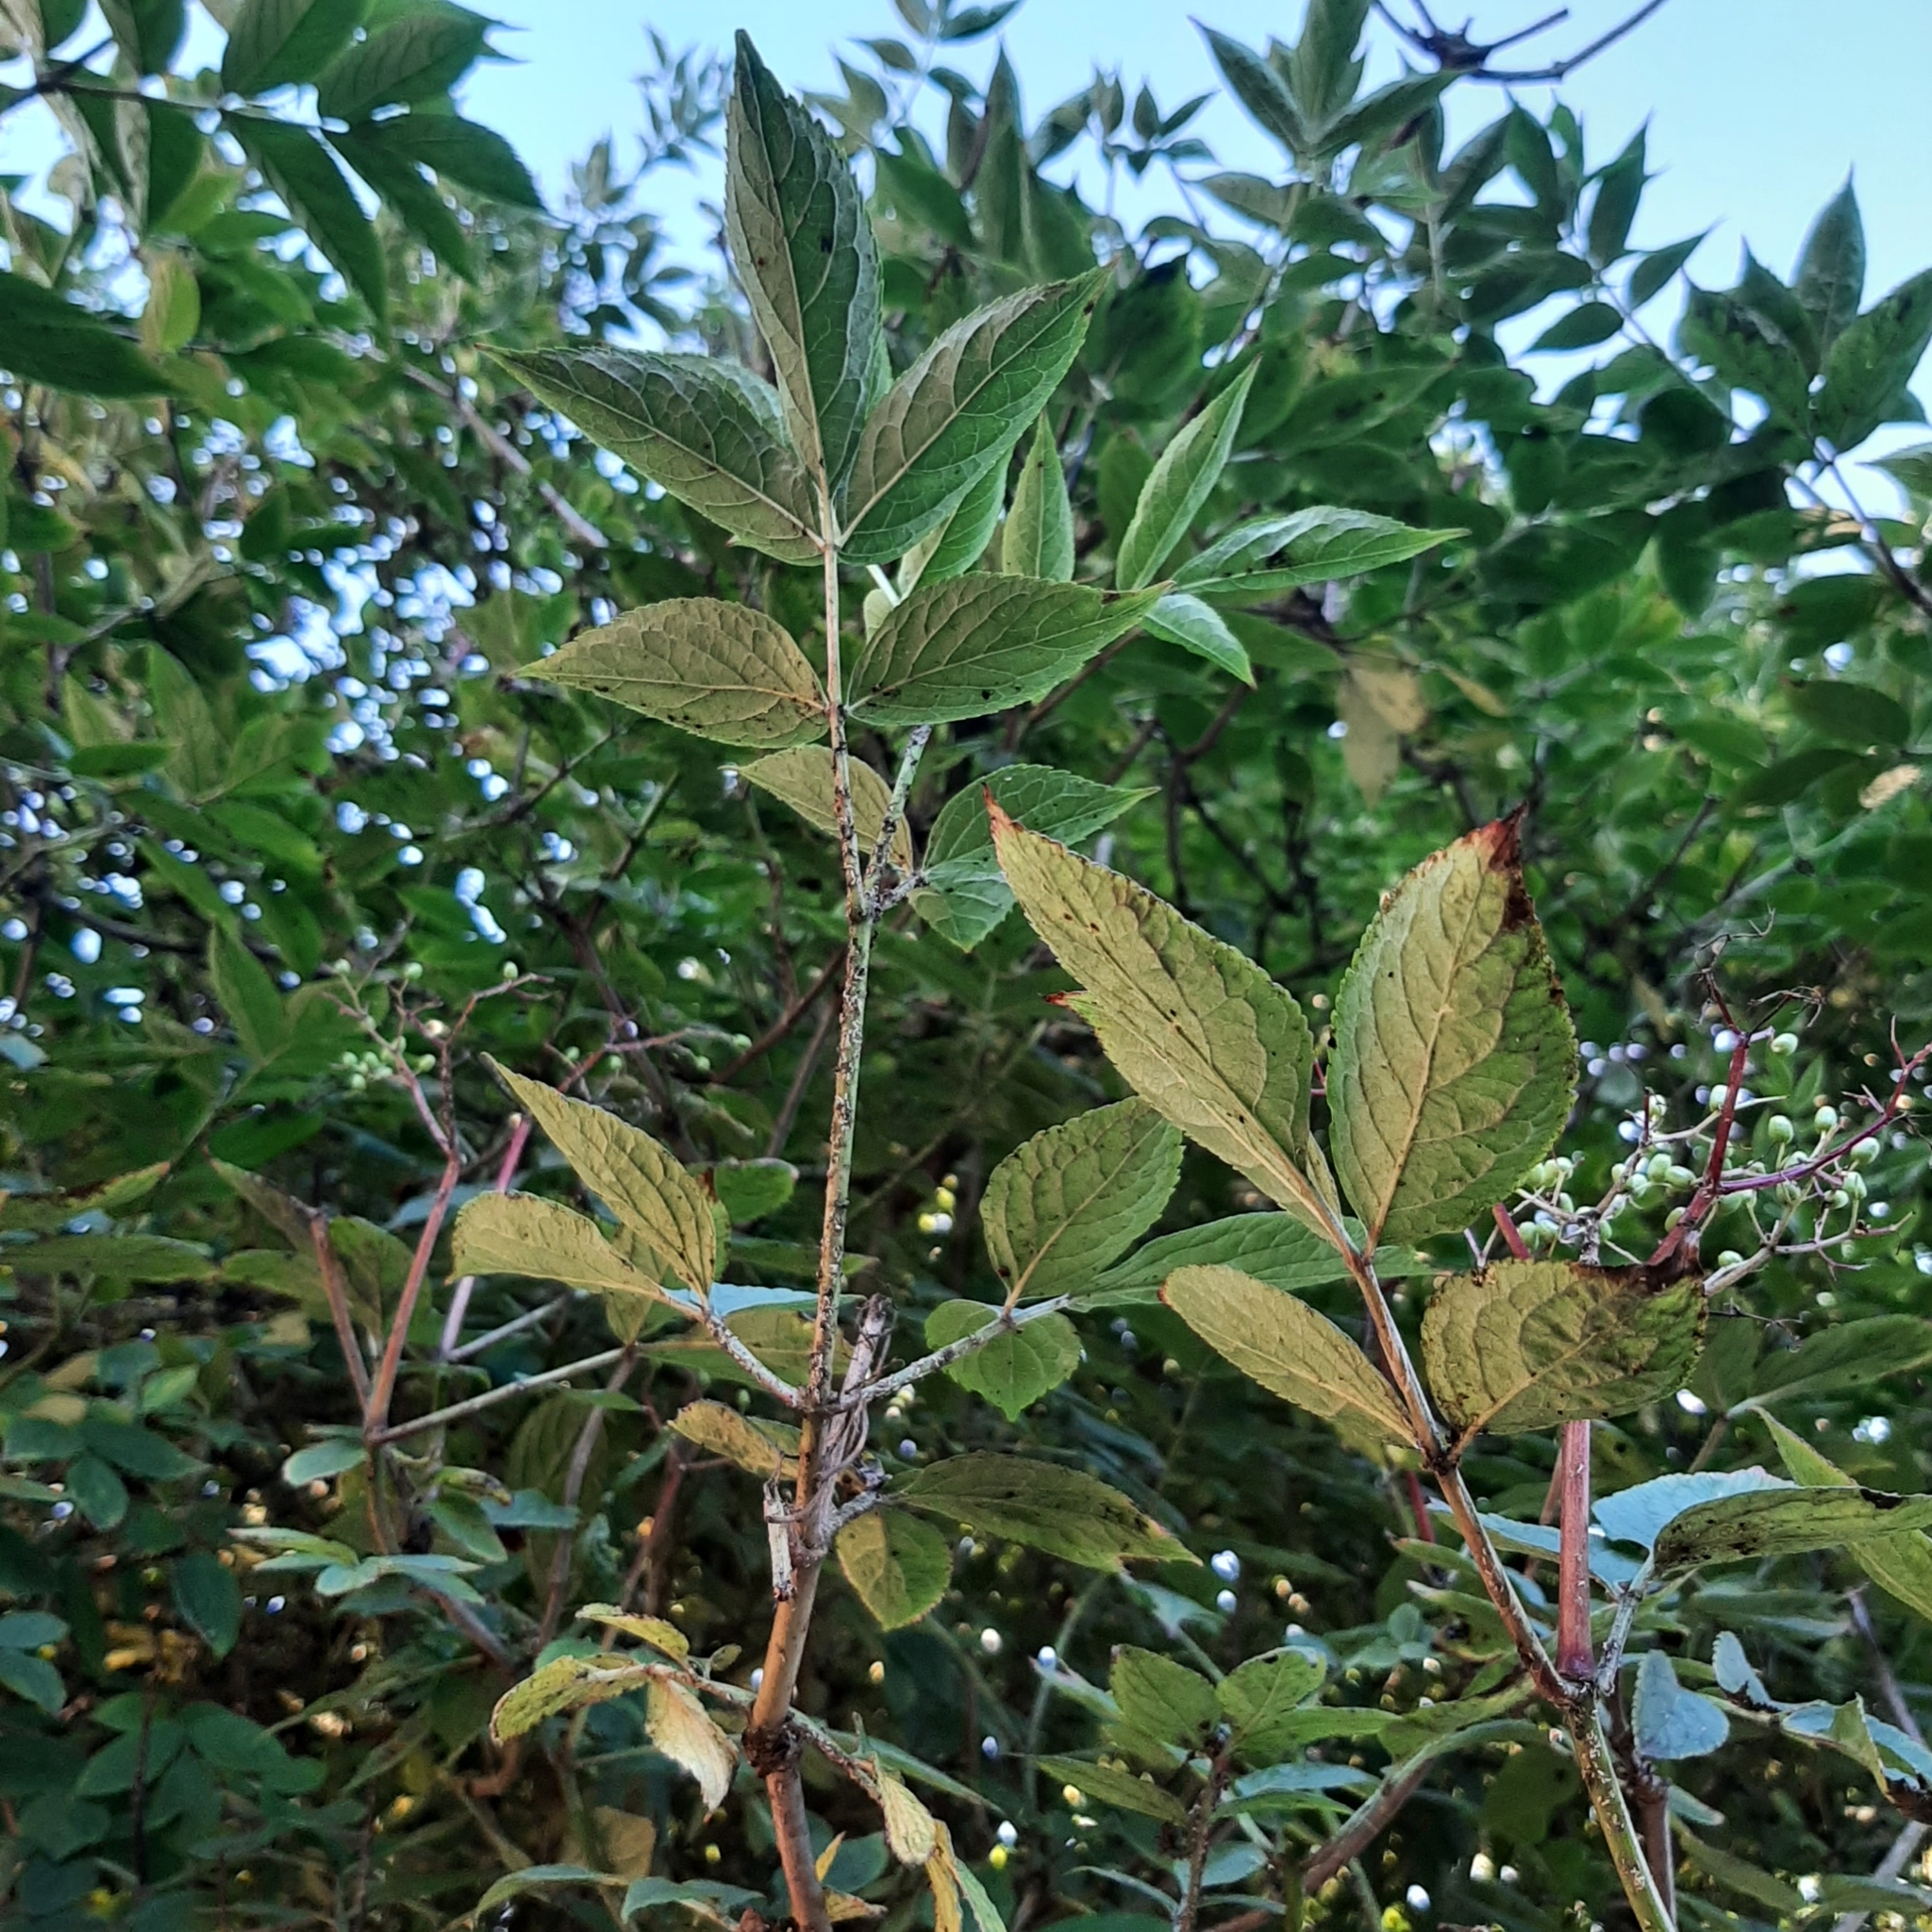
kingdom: Plantae
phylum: Tracheophyta
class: Magnoliopsida
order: Dipsacales
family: Viburnaceae
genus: Sambucus
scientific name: Sambucus nigra
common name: Elder
